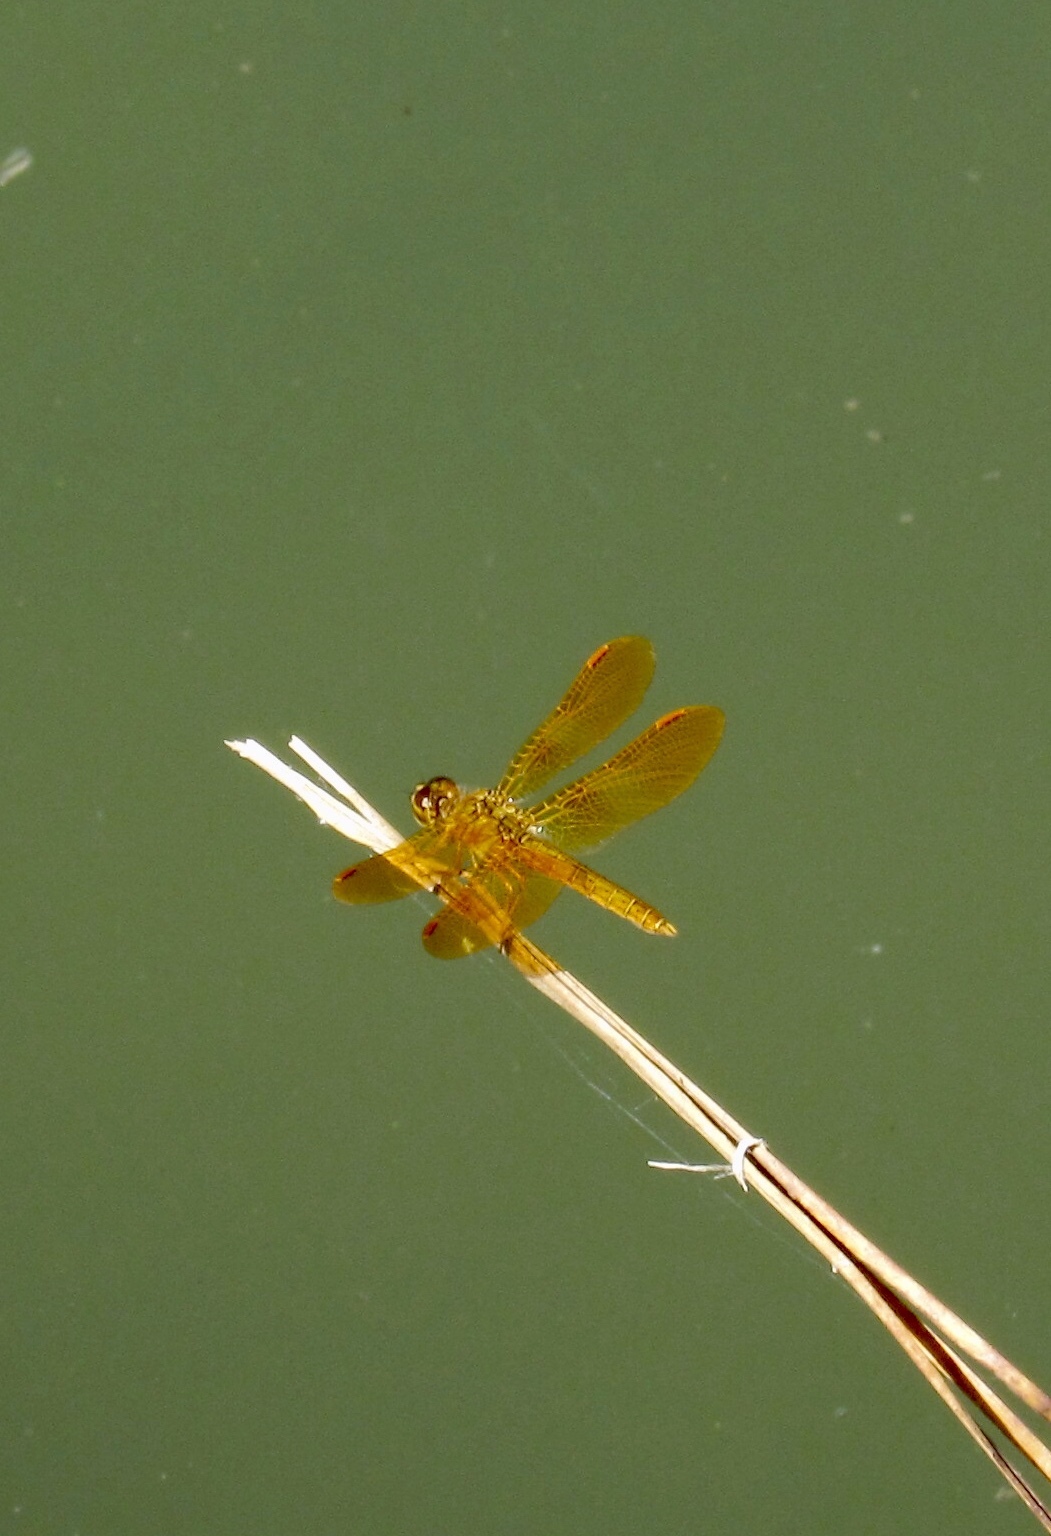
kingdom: Animalia
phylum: Arthropoda
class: Insecta
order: Odonata
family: Libellulidae
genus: Perithemis
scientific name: Perithemis intensa
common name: Mexican amberwing
